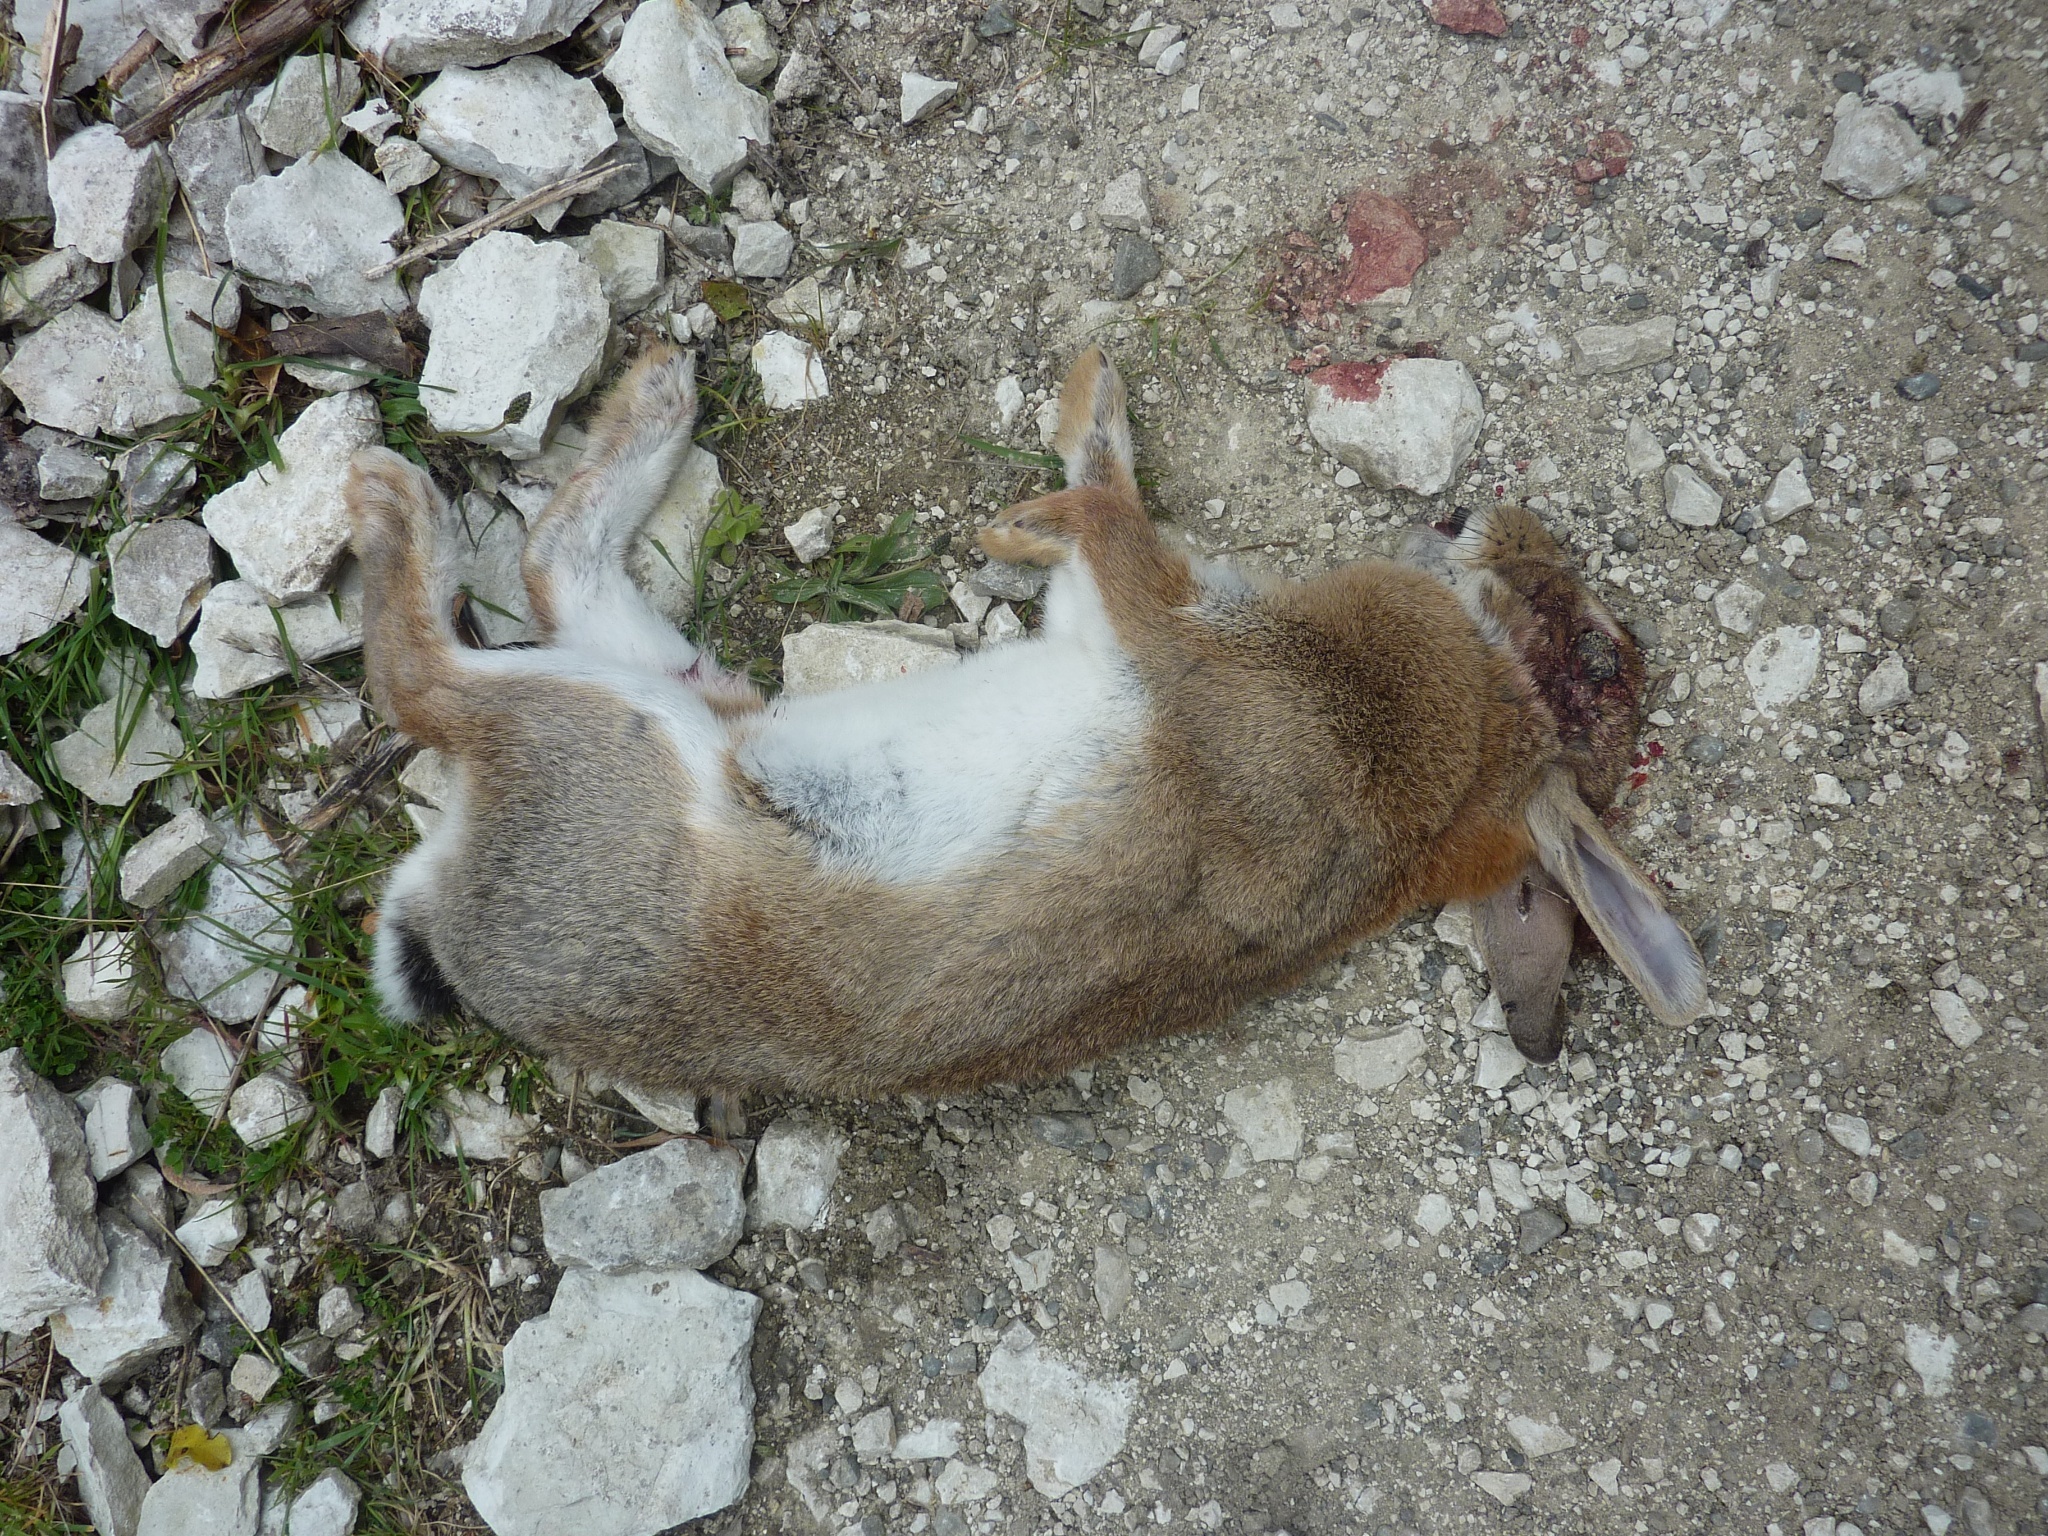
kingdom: Animalia
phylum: Chordata
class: Mammalia
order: Lagomorpha
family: Leporidae
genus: Oryctolagus
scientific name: Oryctolagus cuniculus
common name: European rabbit
